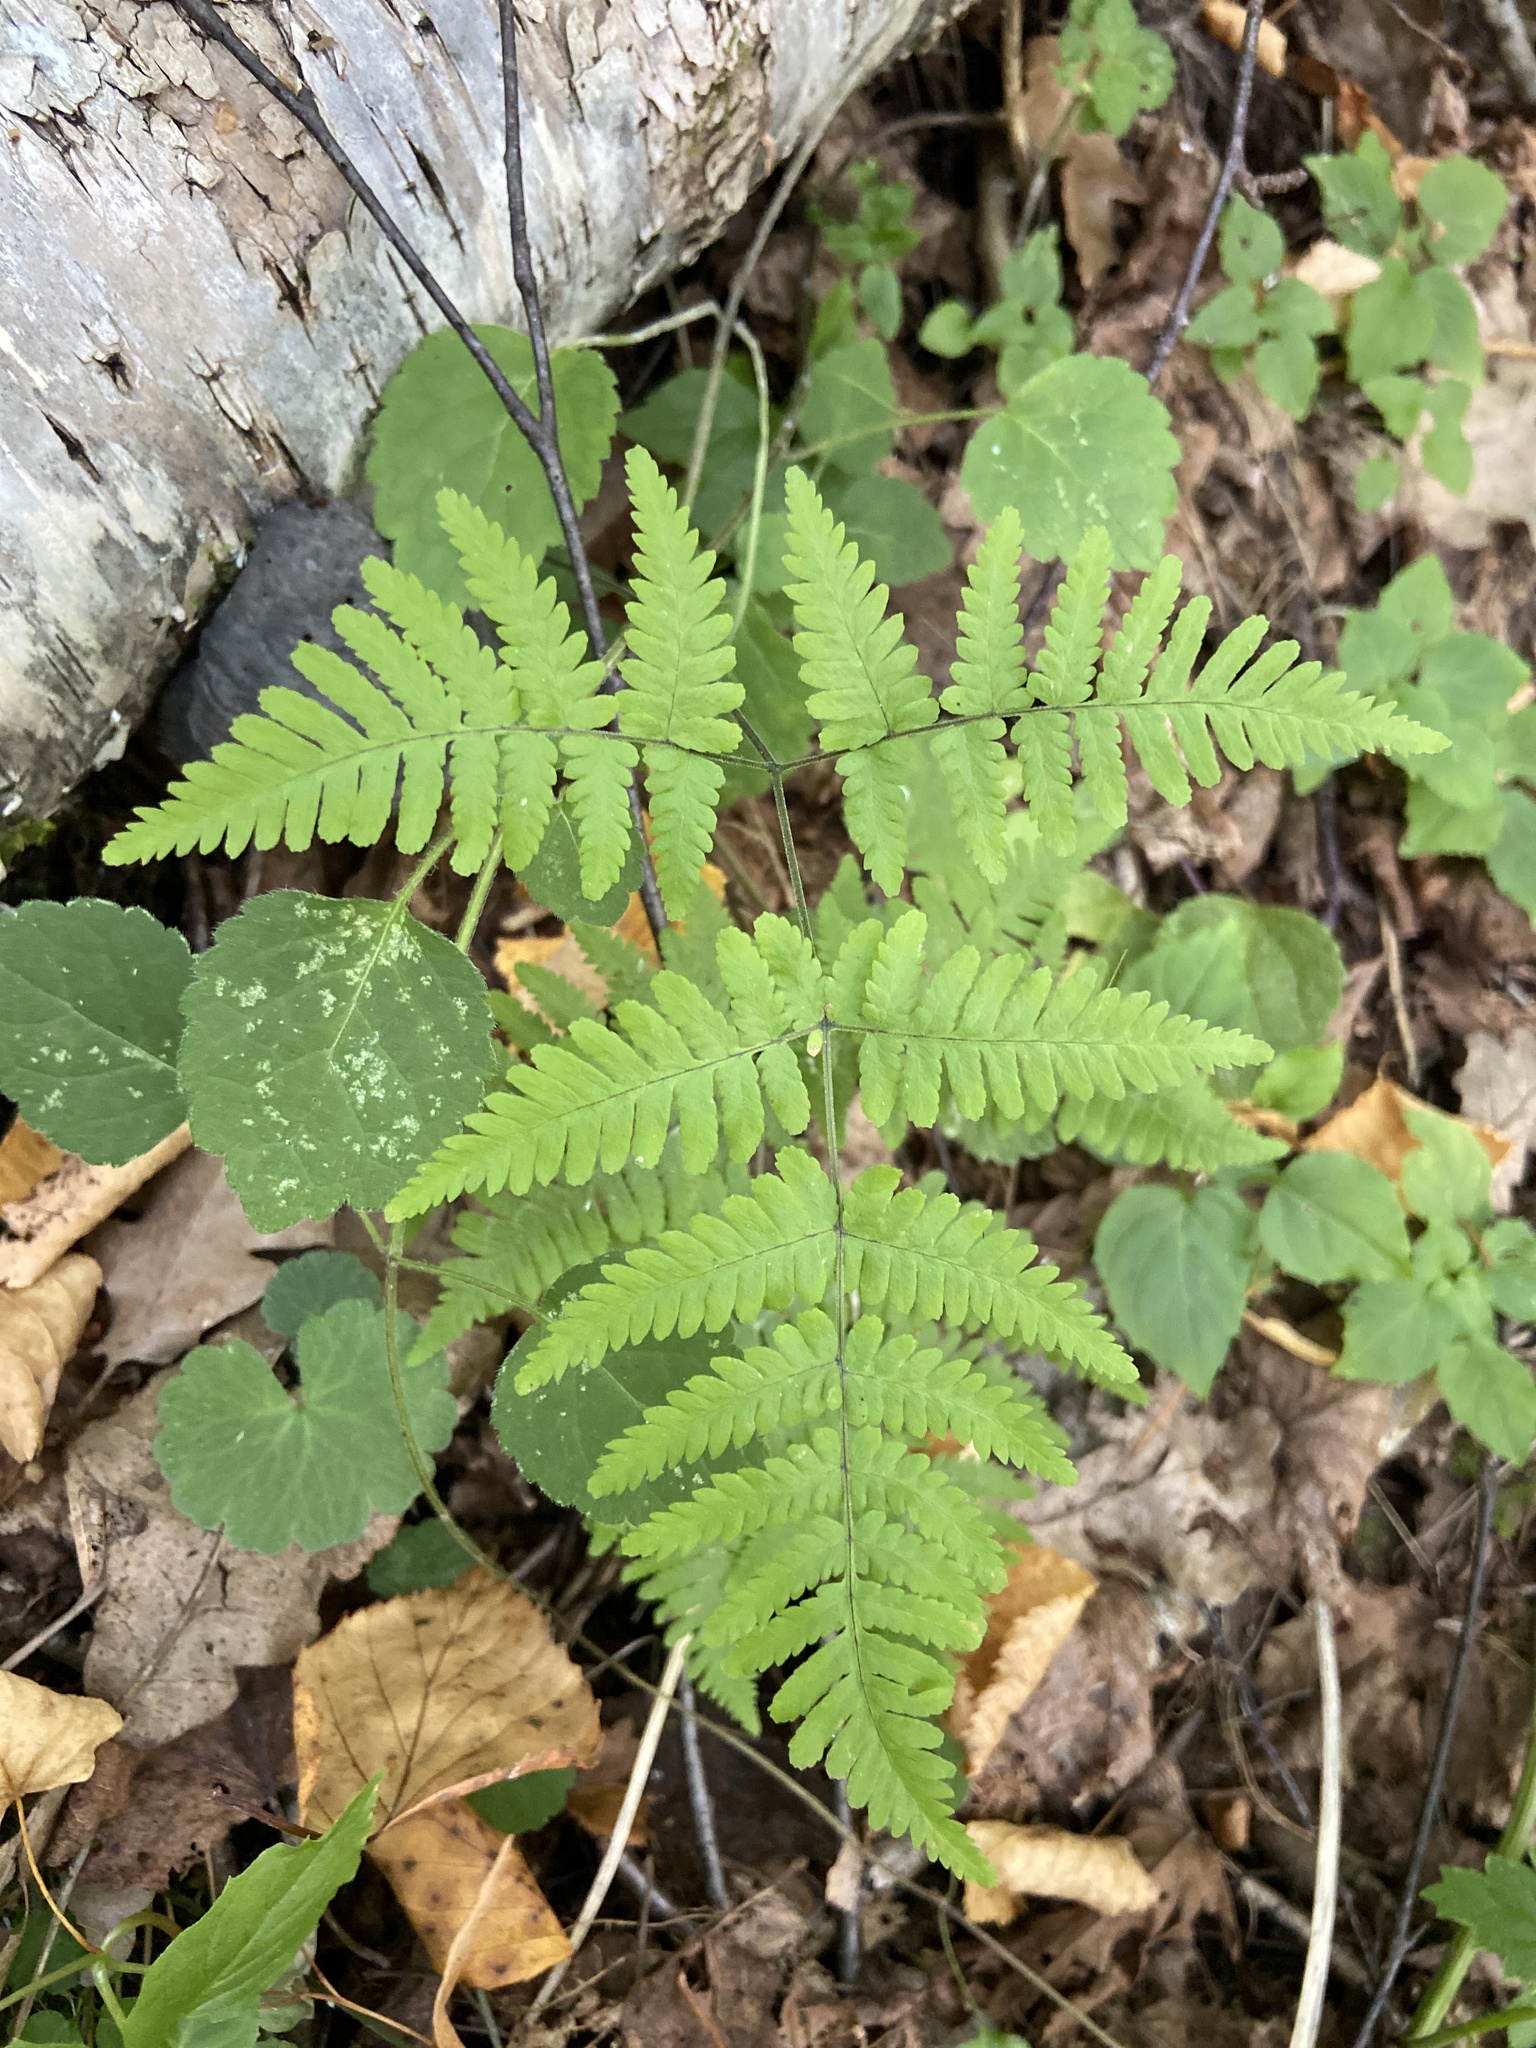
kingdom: Plantae
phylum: Tracheophyta
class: Polypodiopsida
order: Polypodiales
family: Cystopteridaceae
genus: Gymnocarpium
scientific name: Gymnocarpium robertianum
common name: Limestone fern
